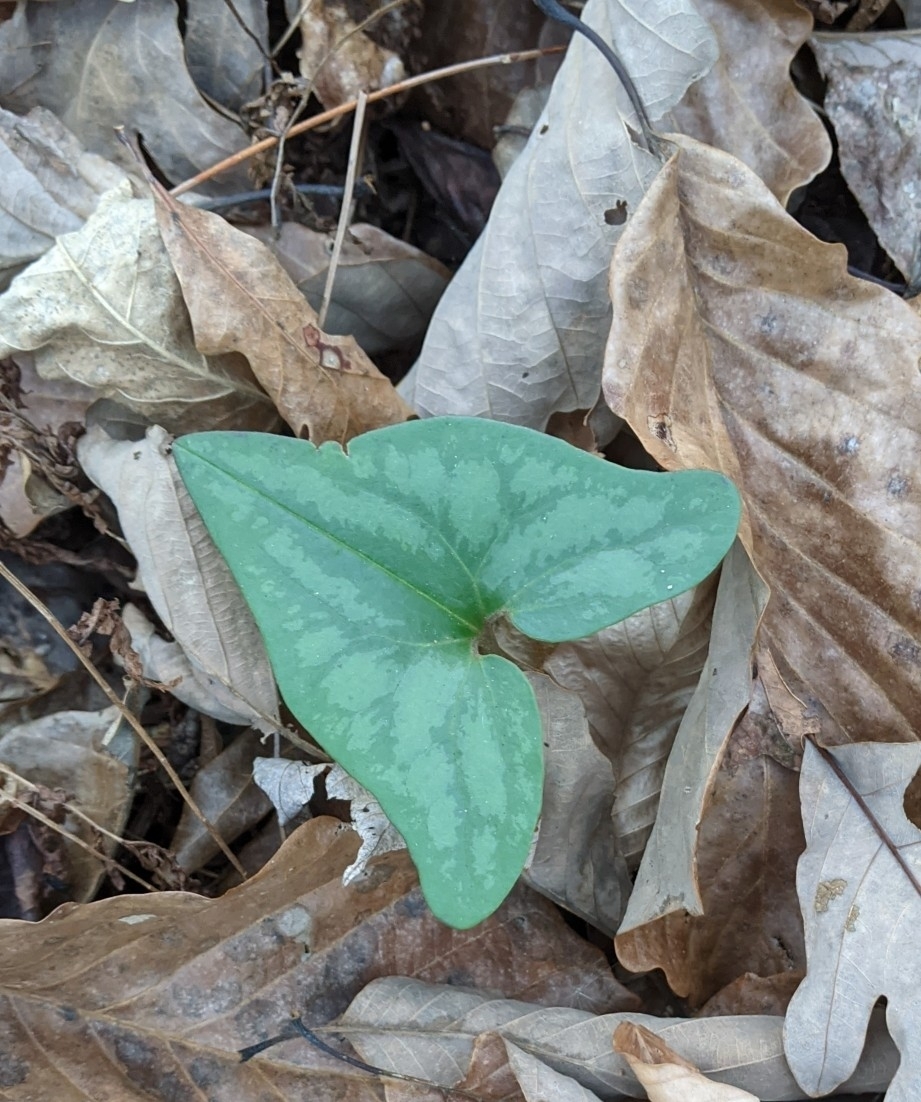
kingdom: Plantae
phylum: Tracheophyta
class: Magnoliopsida
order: Piperales
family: Aristolochiaceae
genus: Hexastylis
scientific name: Hexastylis arifolia
